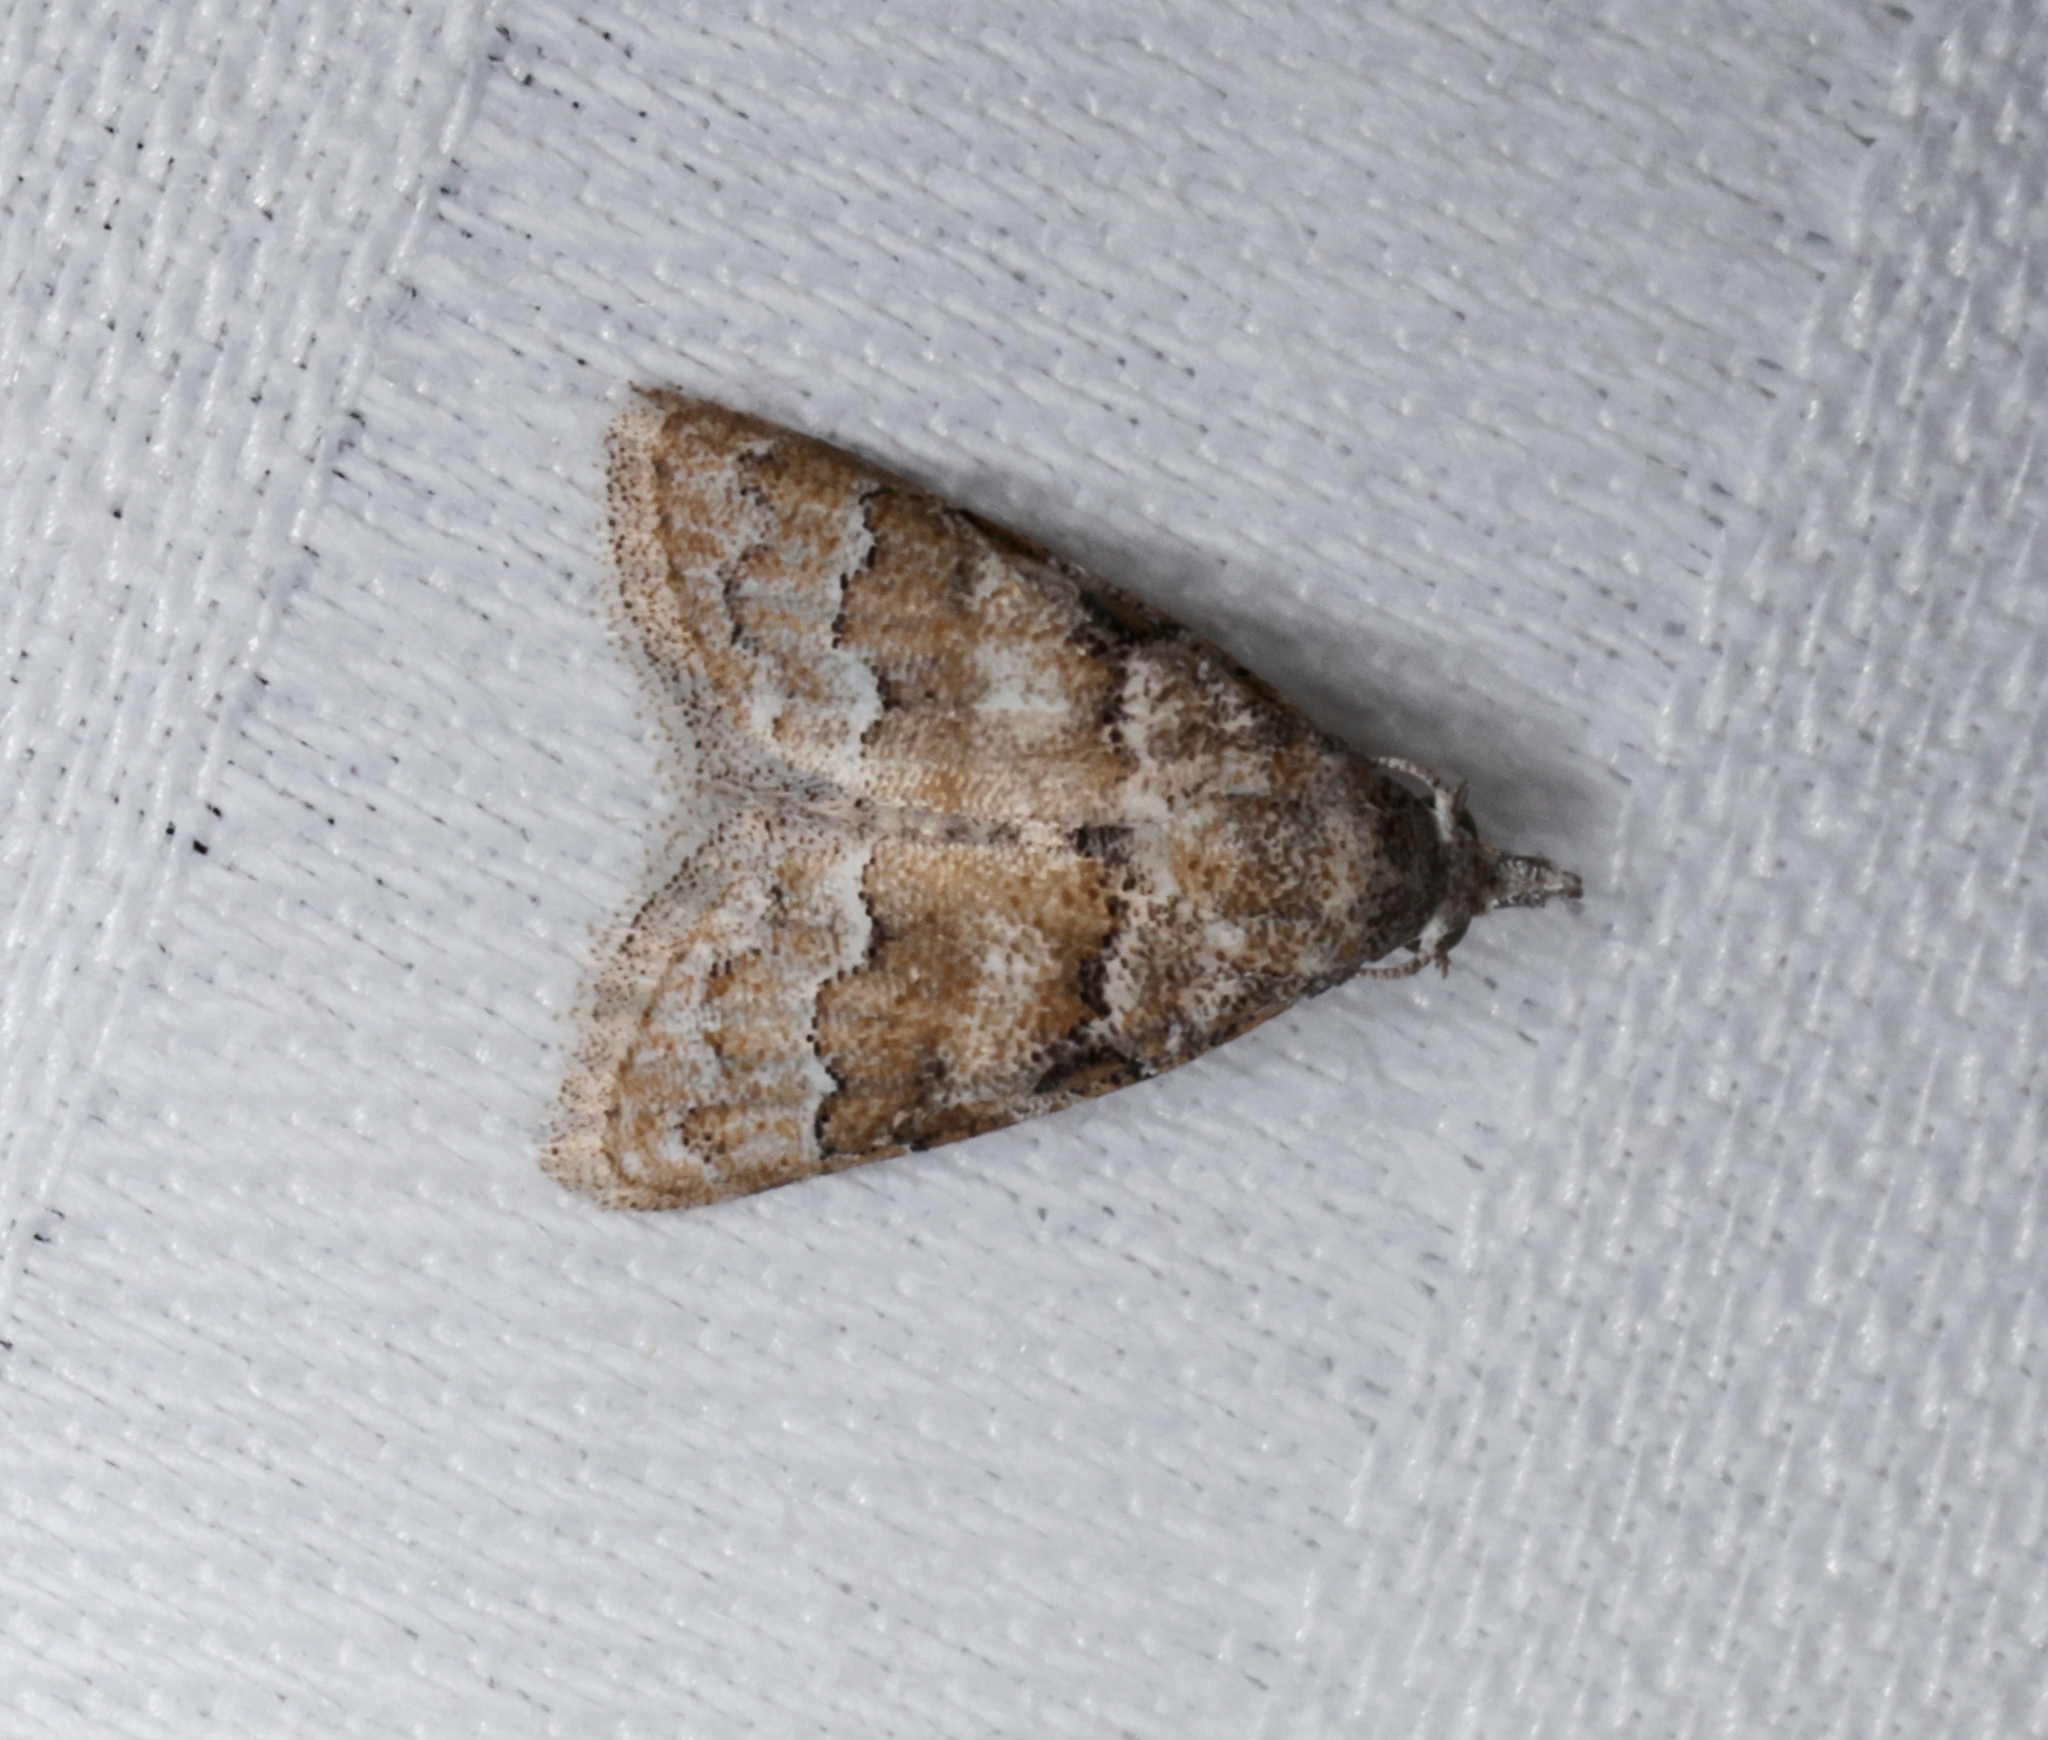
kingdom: Animalia
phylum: Arthropoda
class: Insecta
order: Lepidoptera
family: Nolidae
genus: Nola
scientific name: Nola bifascialis
